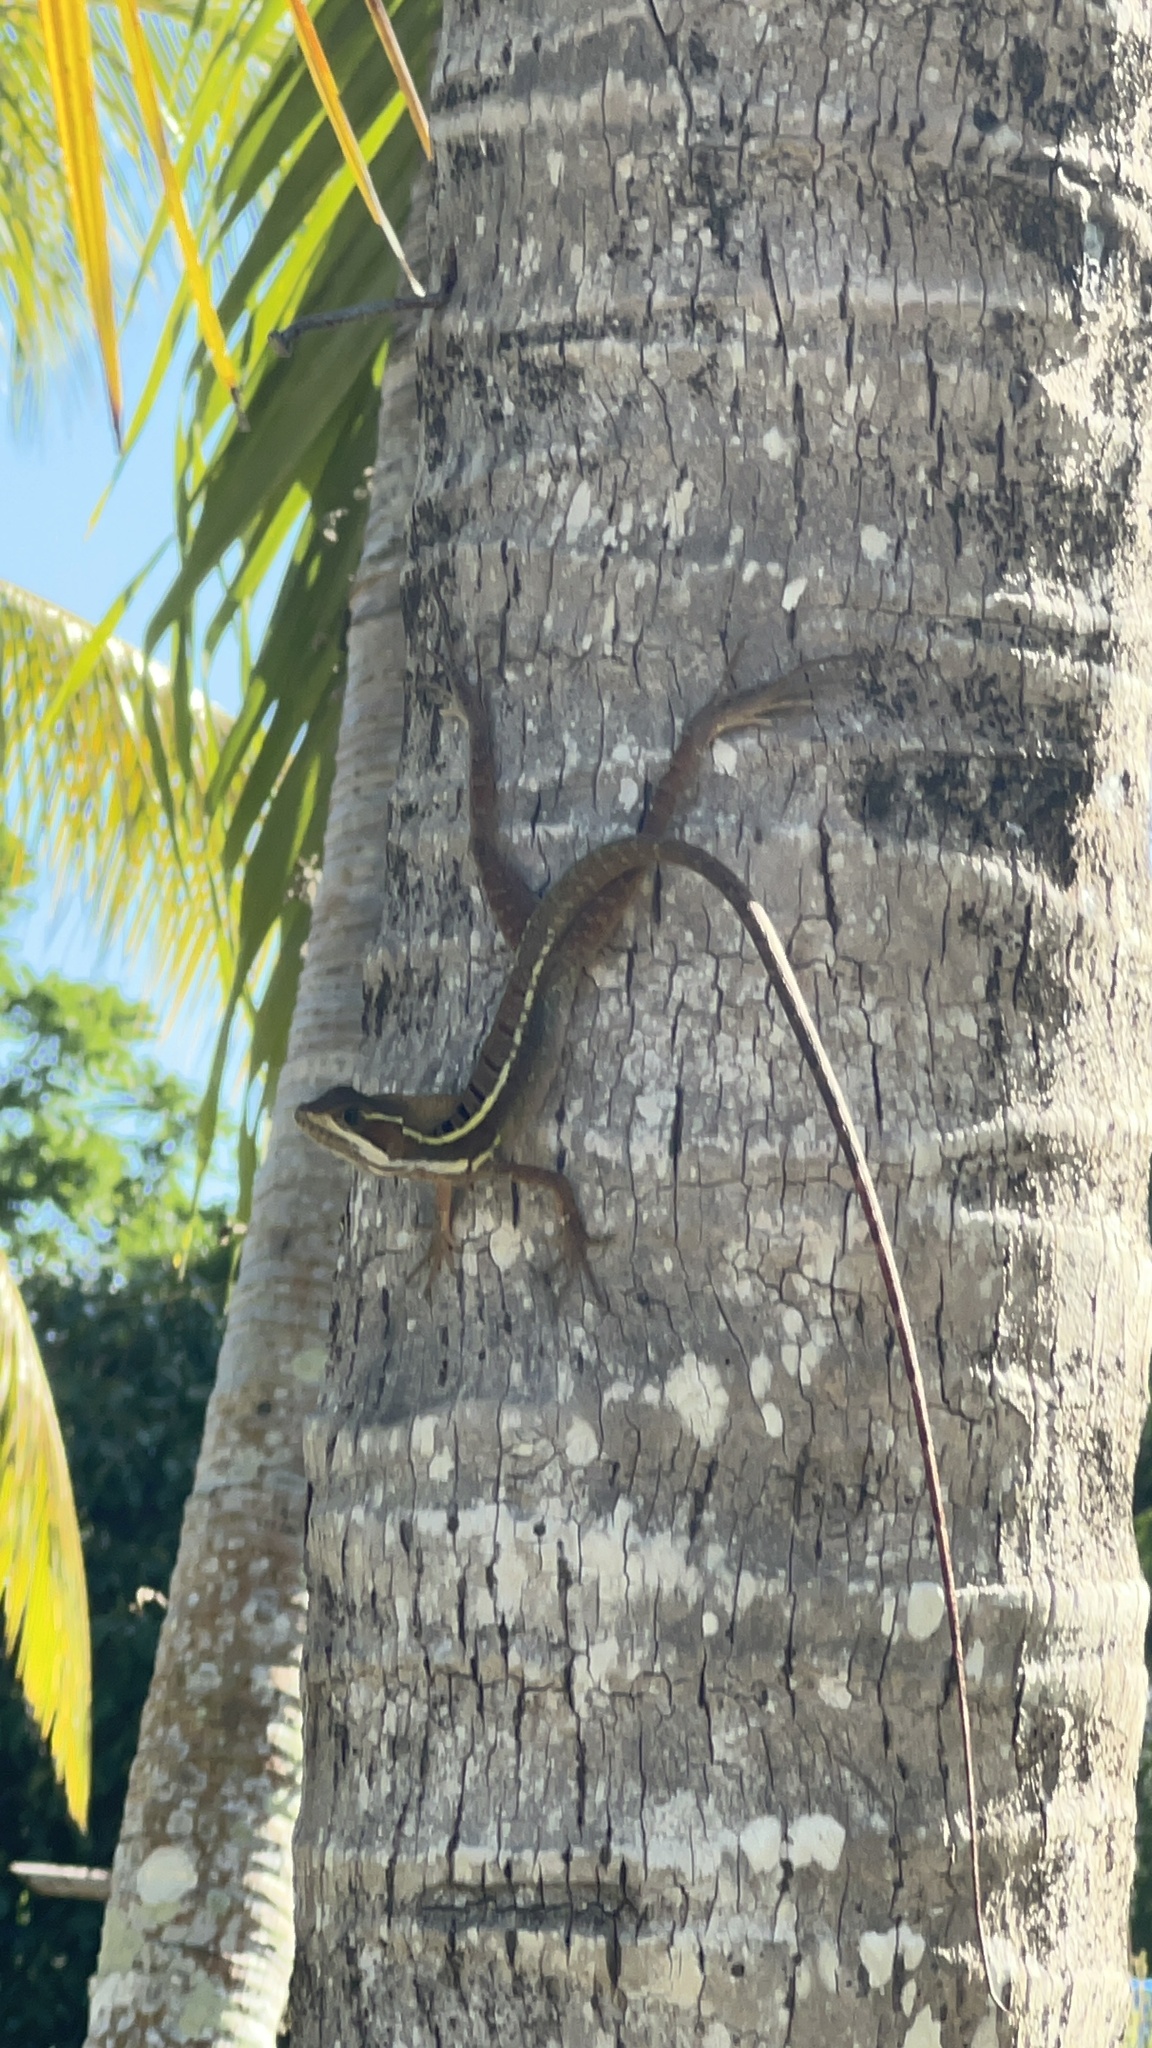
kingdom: Animalia
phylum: Chordata
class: Squamata
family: Corytophanidae
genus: Basiliscus
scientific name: Basiliscus vittatus
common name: Brown basilisk
